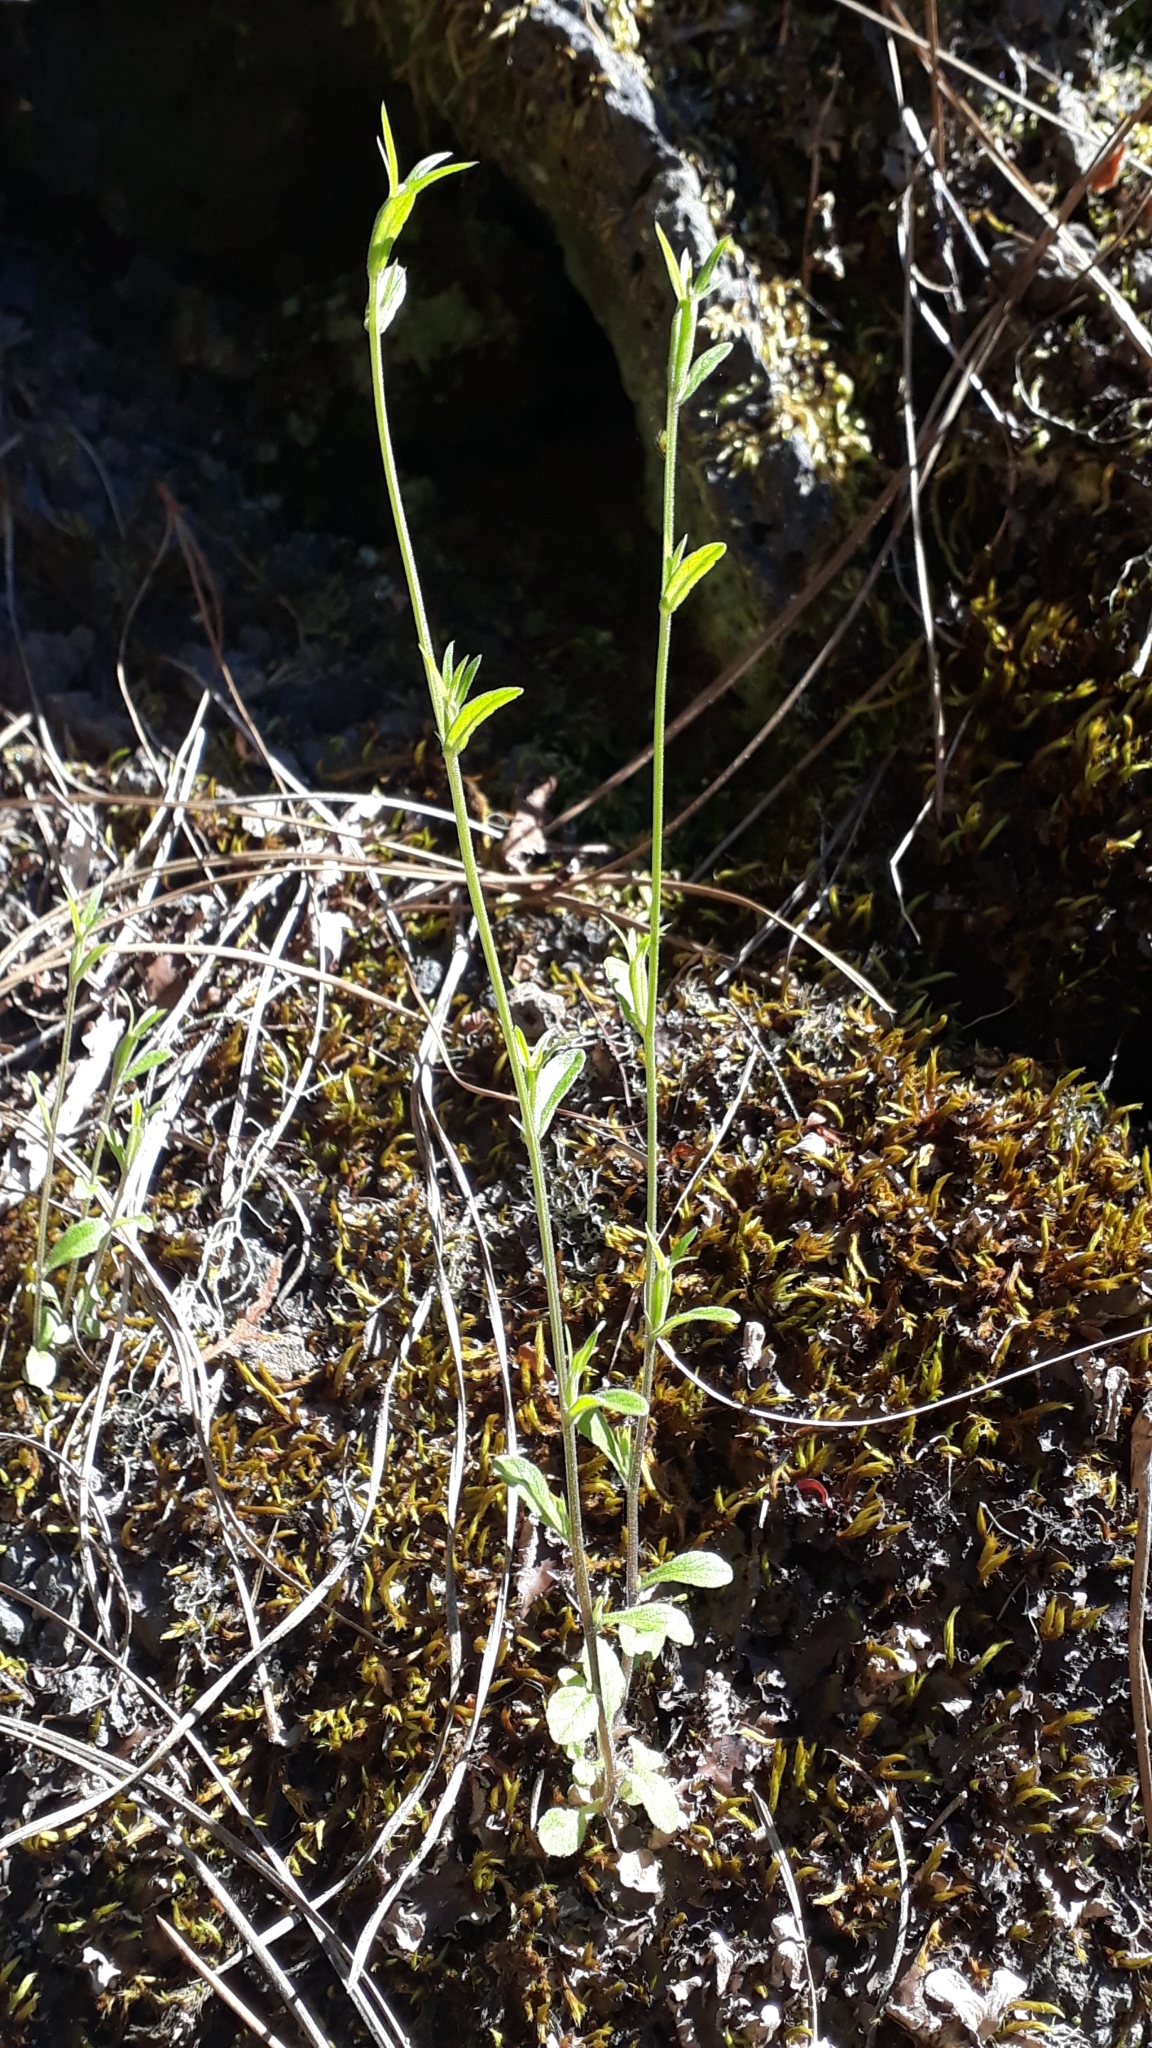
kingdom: Plantae
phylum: Tracheophyta
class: Magnoliopsida
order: Asterales
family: Campanulaceae
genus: Legousia
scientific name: Legousia falcata
